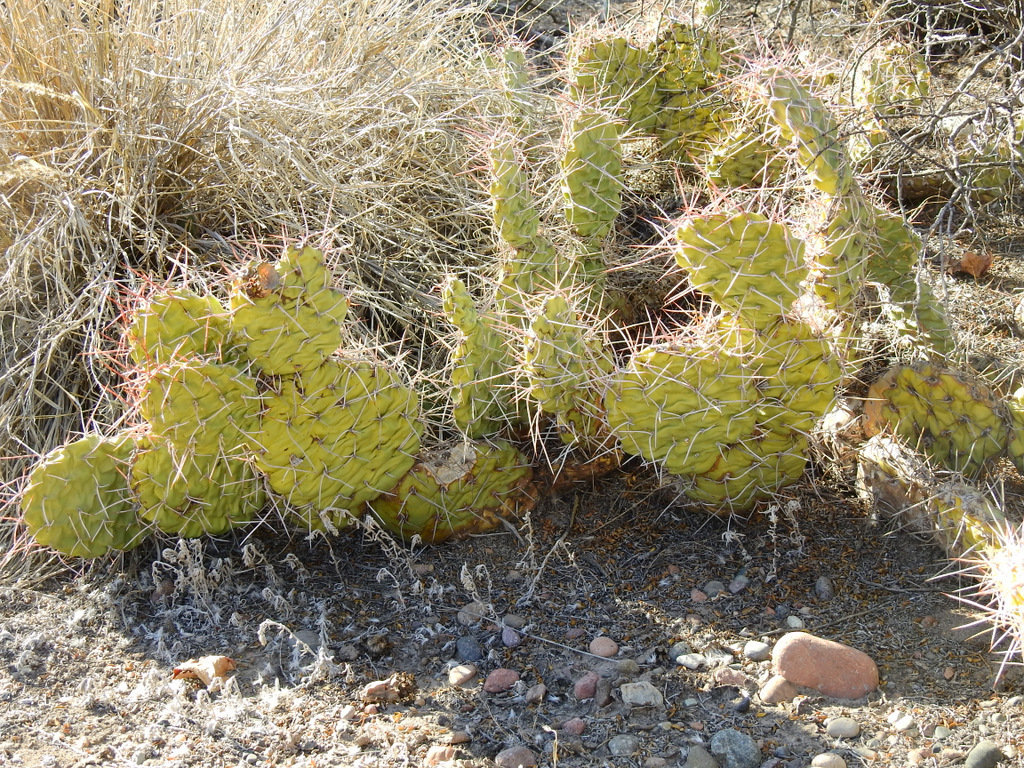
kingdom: Plantae
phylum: Tracheophyta
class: Magnoliopsida
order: Caryophyllales
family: Cactaceae
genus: Opuntia
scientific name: Opuntia sulphurea
